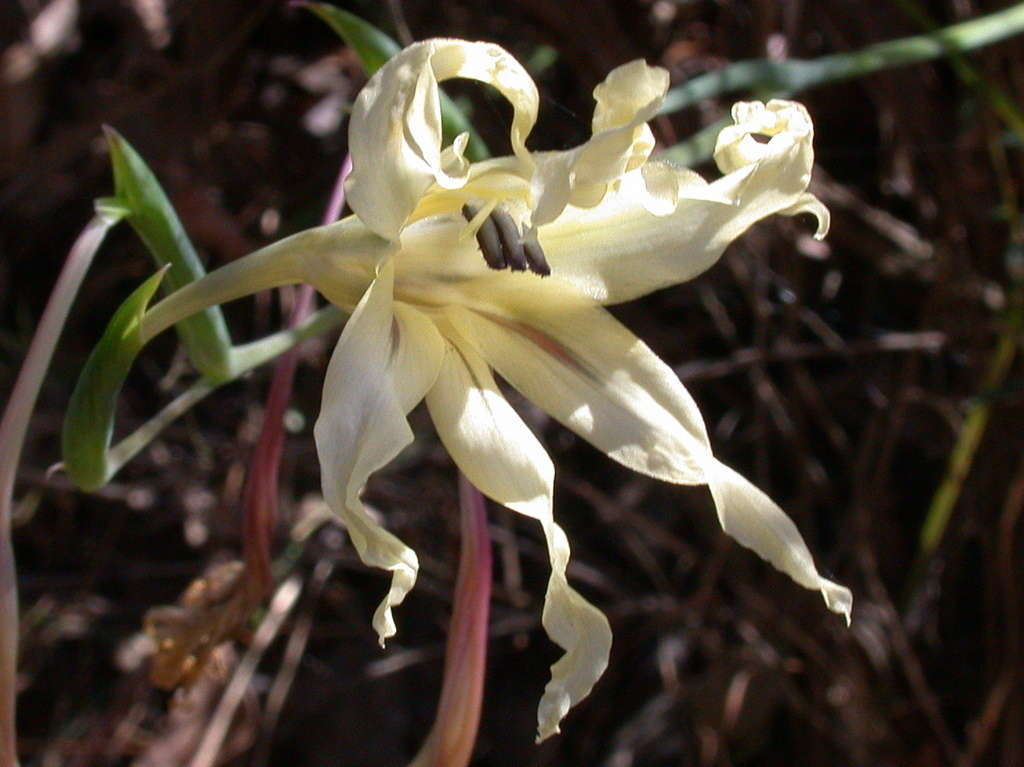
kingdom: Plantae
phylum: Tracheophyta
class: Liliopsida
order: Asparagales
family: Iridaceae
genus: Gladiolus
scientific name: Gladiolus undulatus
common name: Large painted-lady
